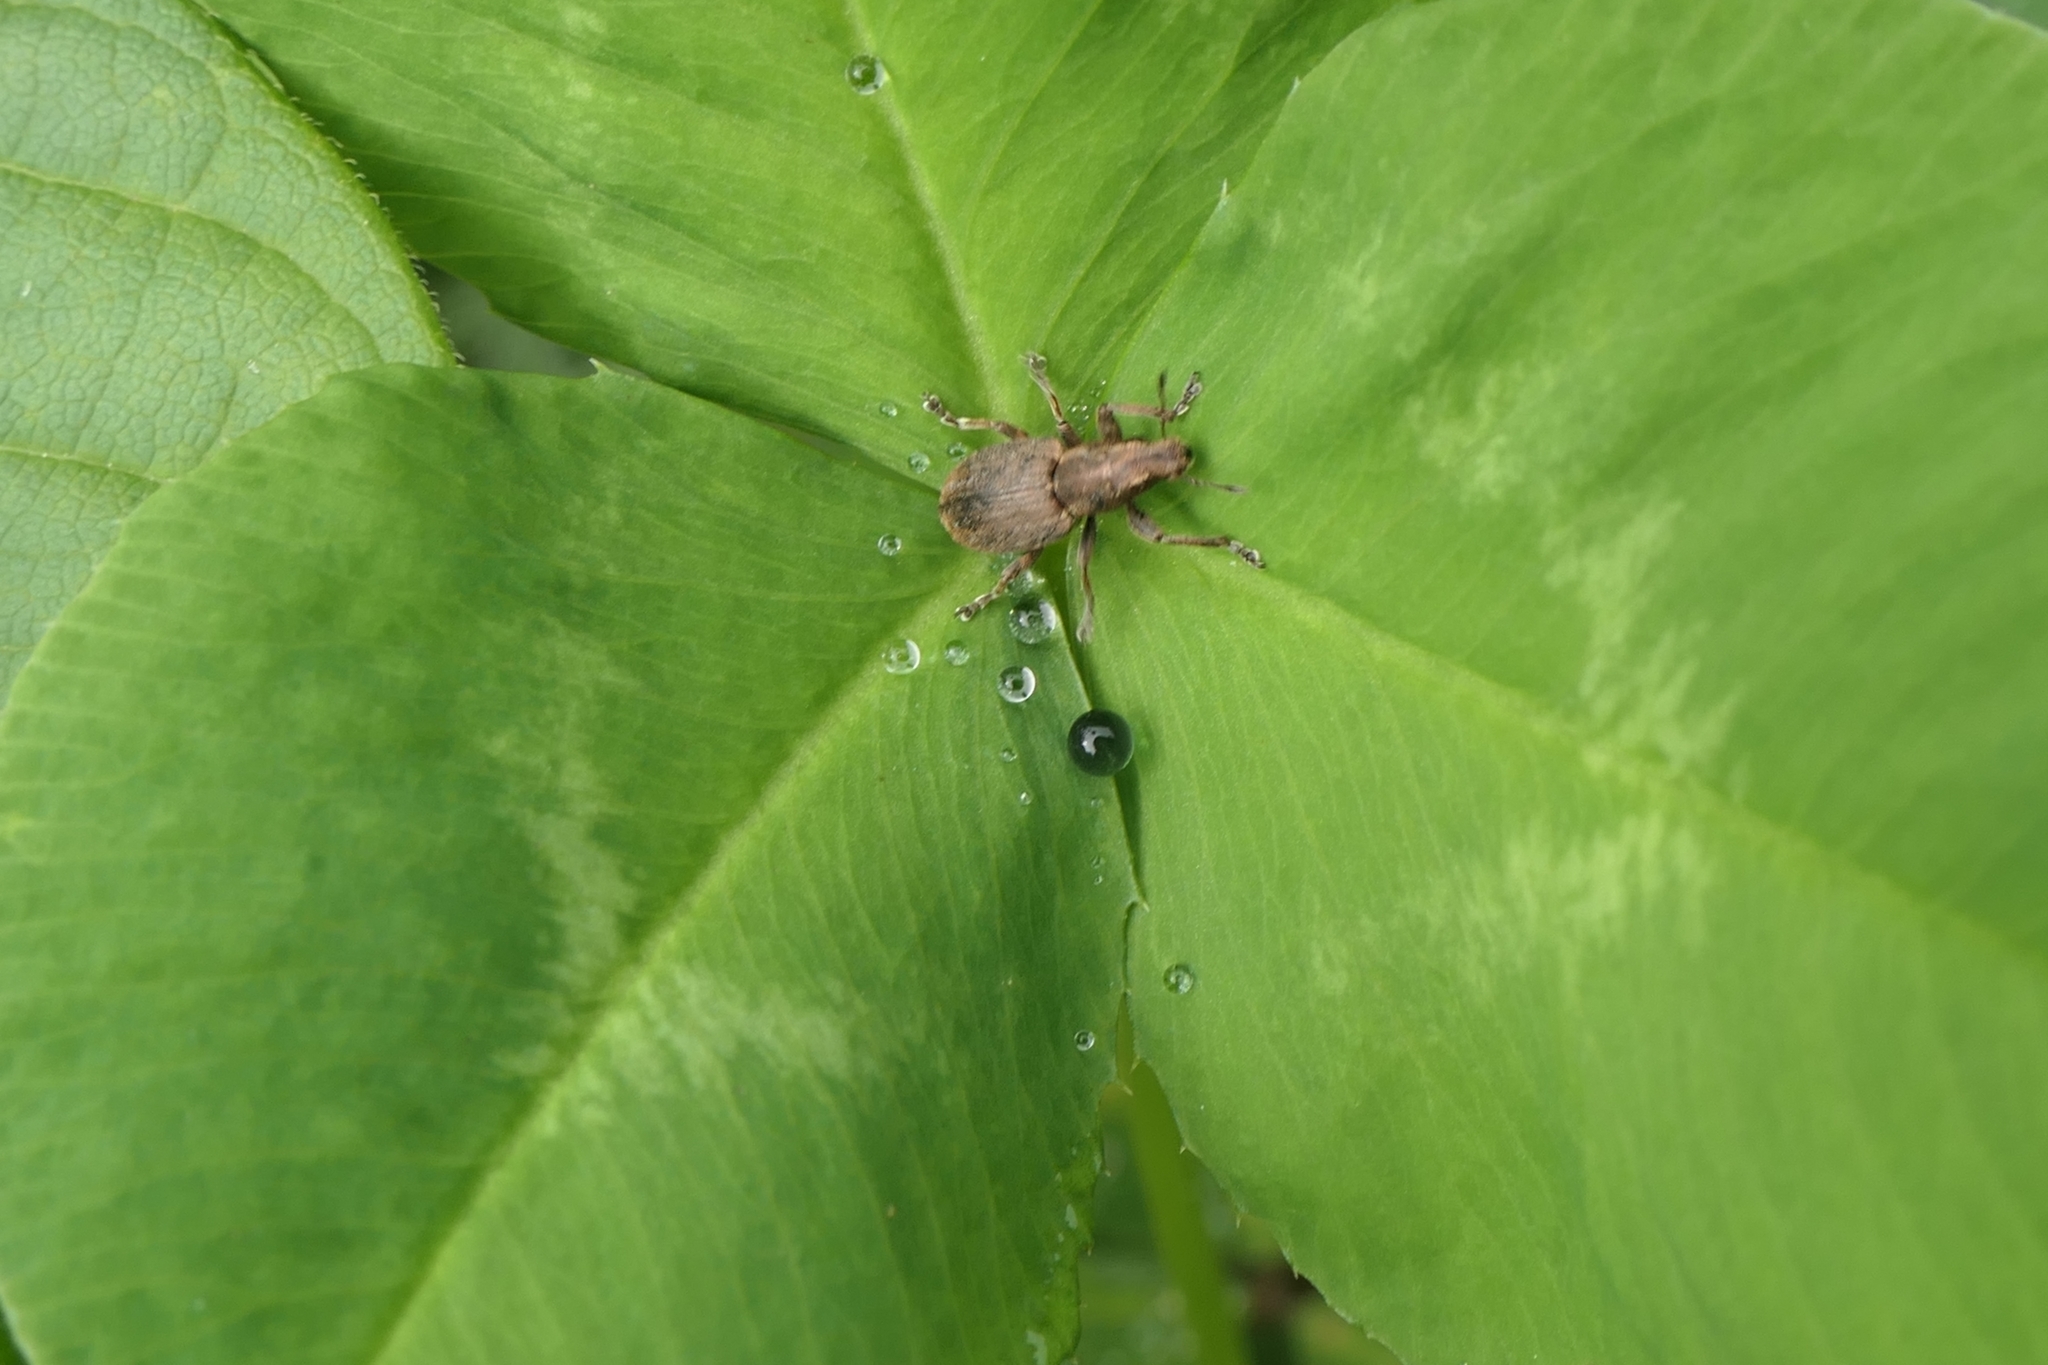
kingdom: Animalia
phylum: Arthropoda
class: Insecta
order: Coleoptera
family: Curculionidae
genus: Sitona
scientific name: Sitona obsoletus
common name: Weevil
